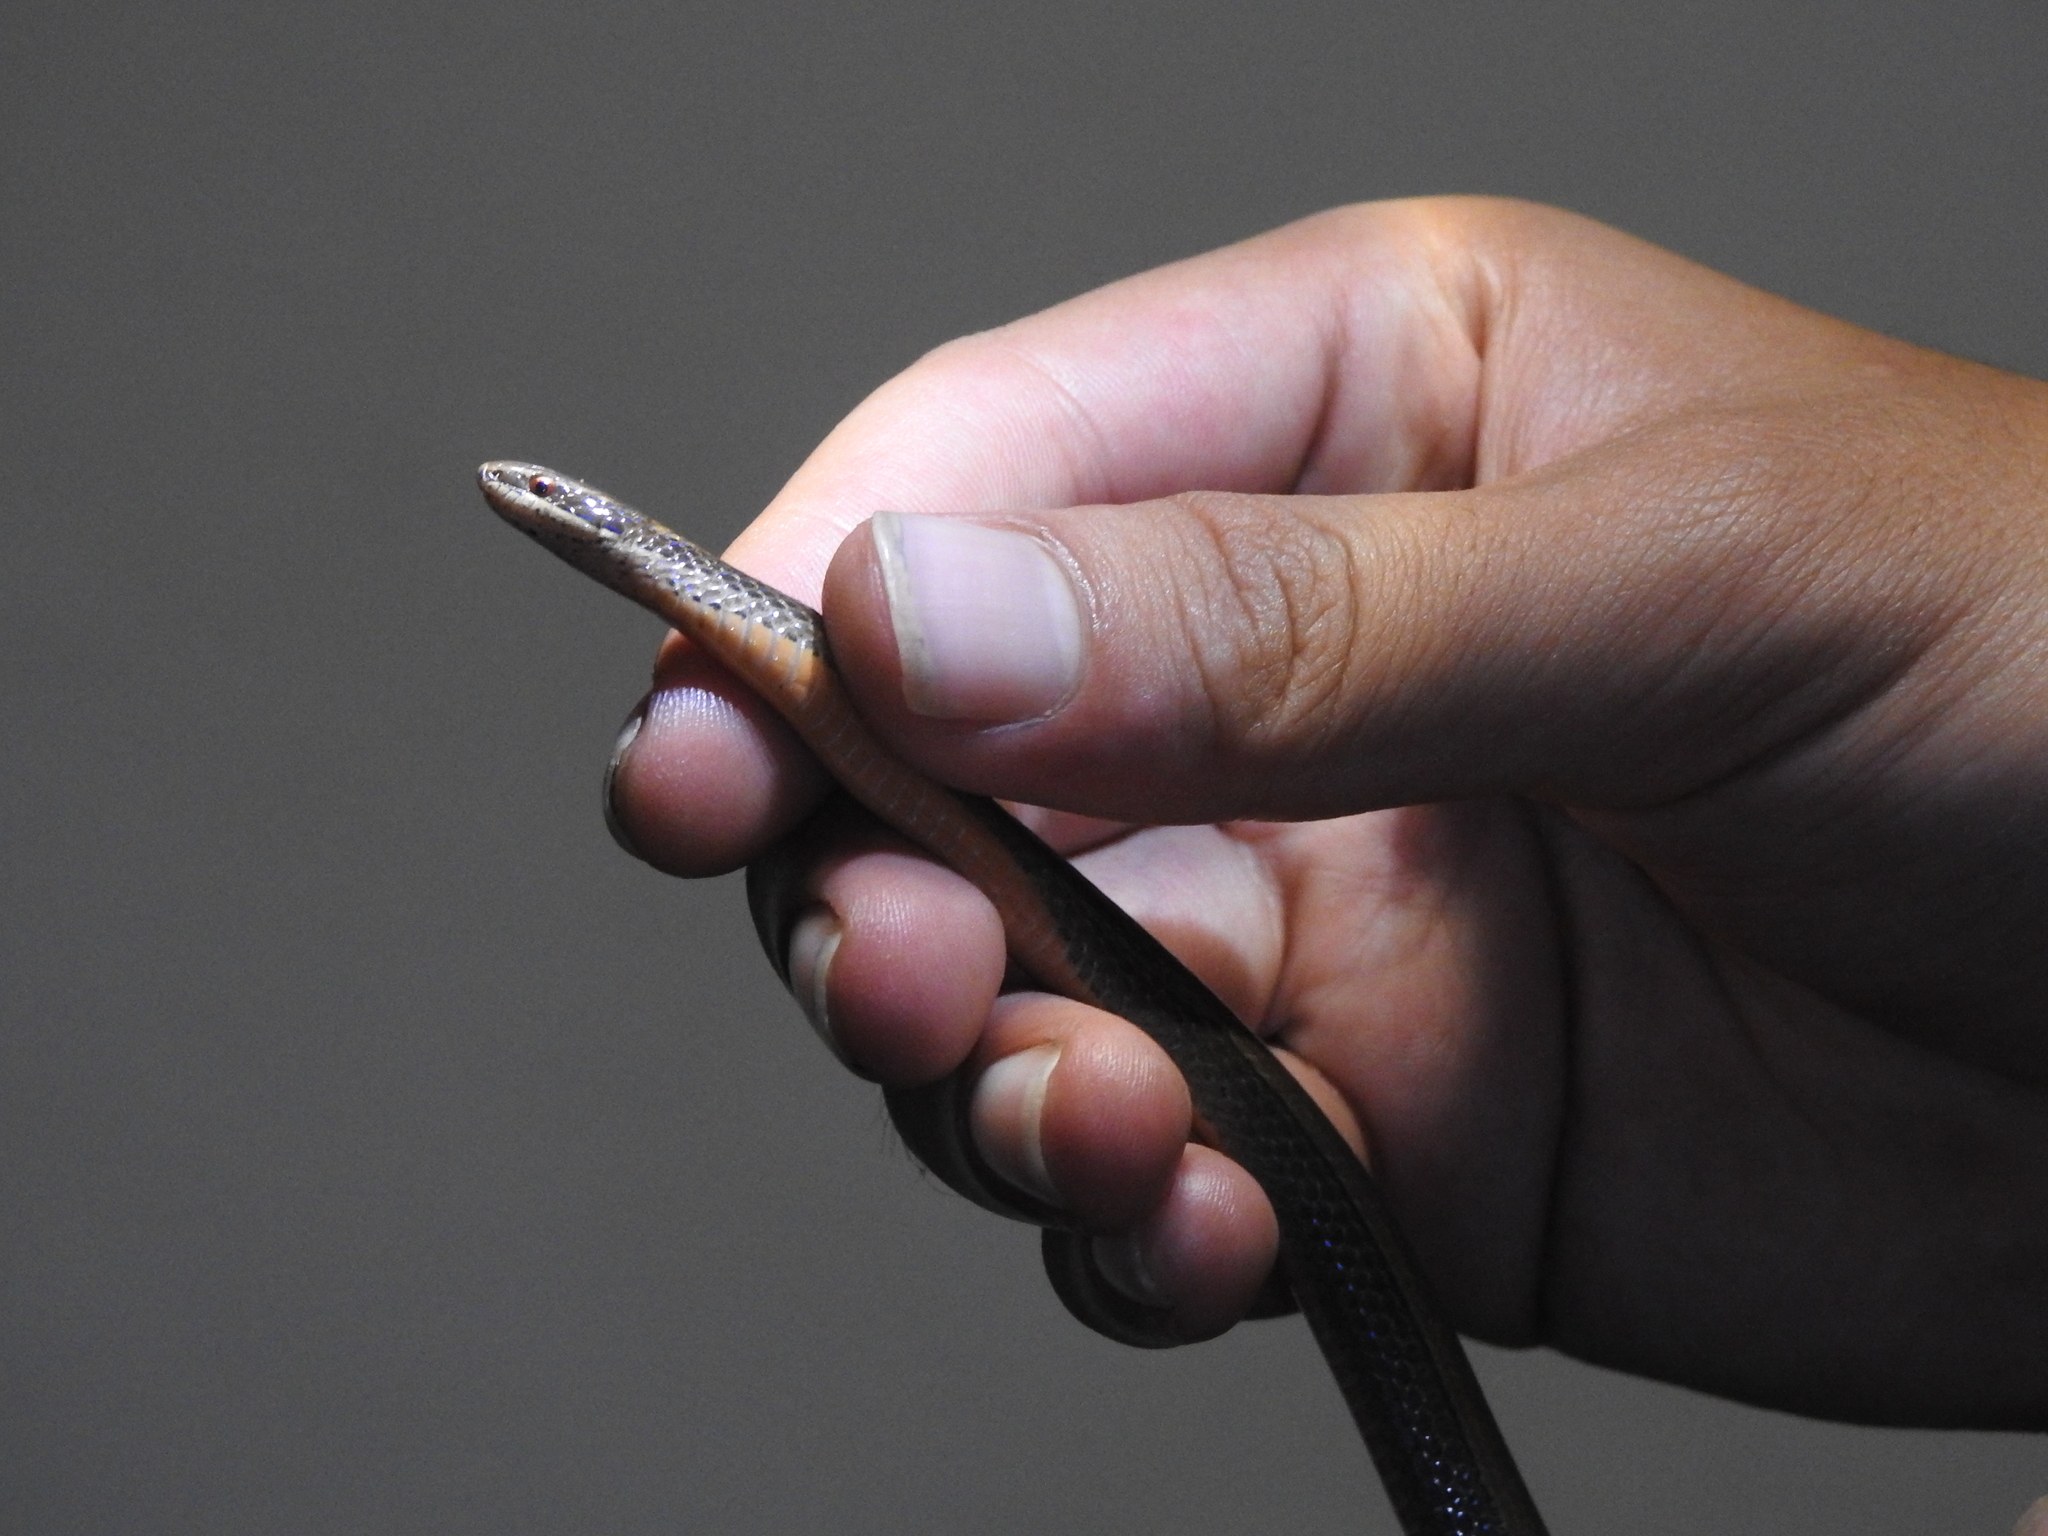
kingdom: Animalia
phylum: Chordata
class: Squamata
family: Colubridae
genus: Coniophanes
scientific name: Coniophanes imperialis
